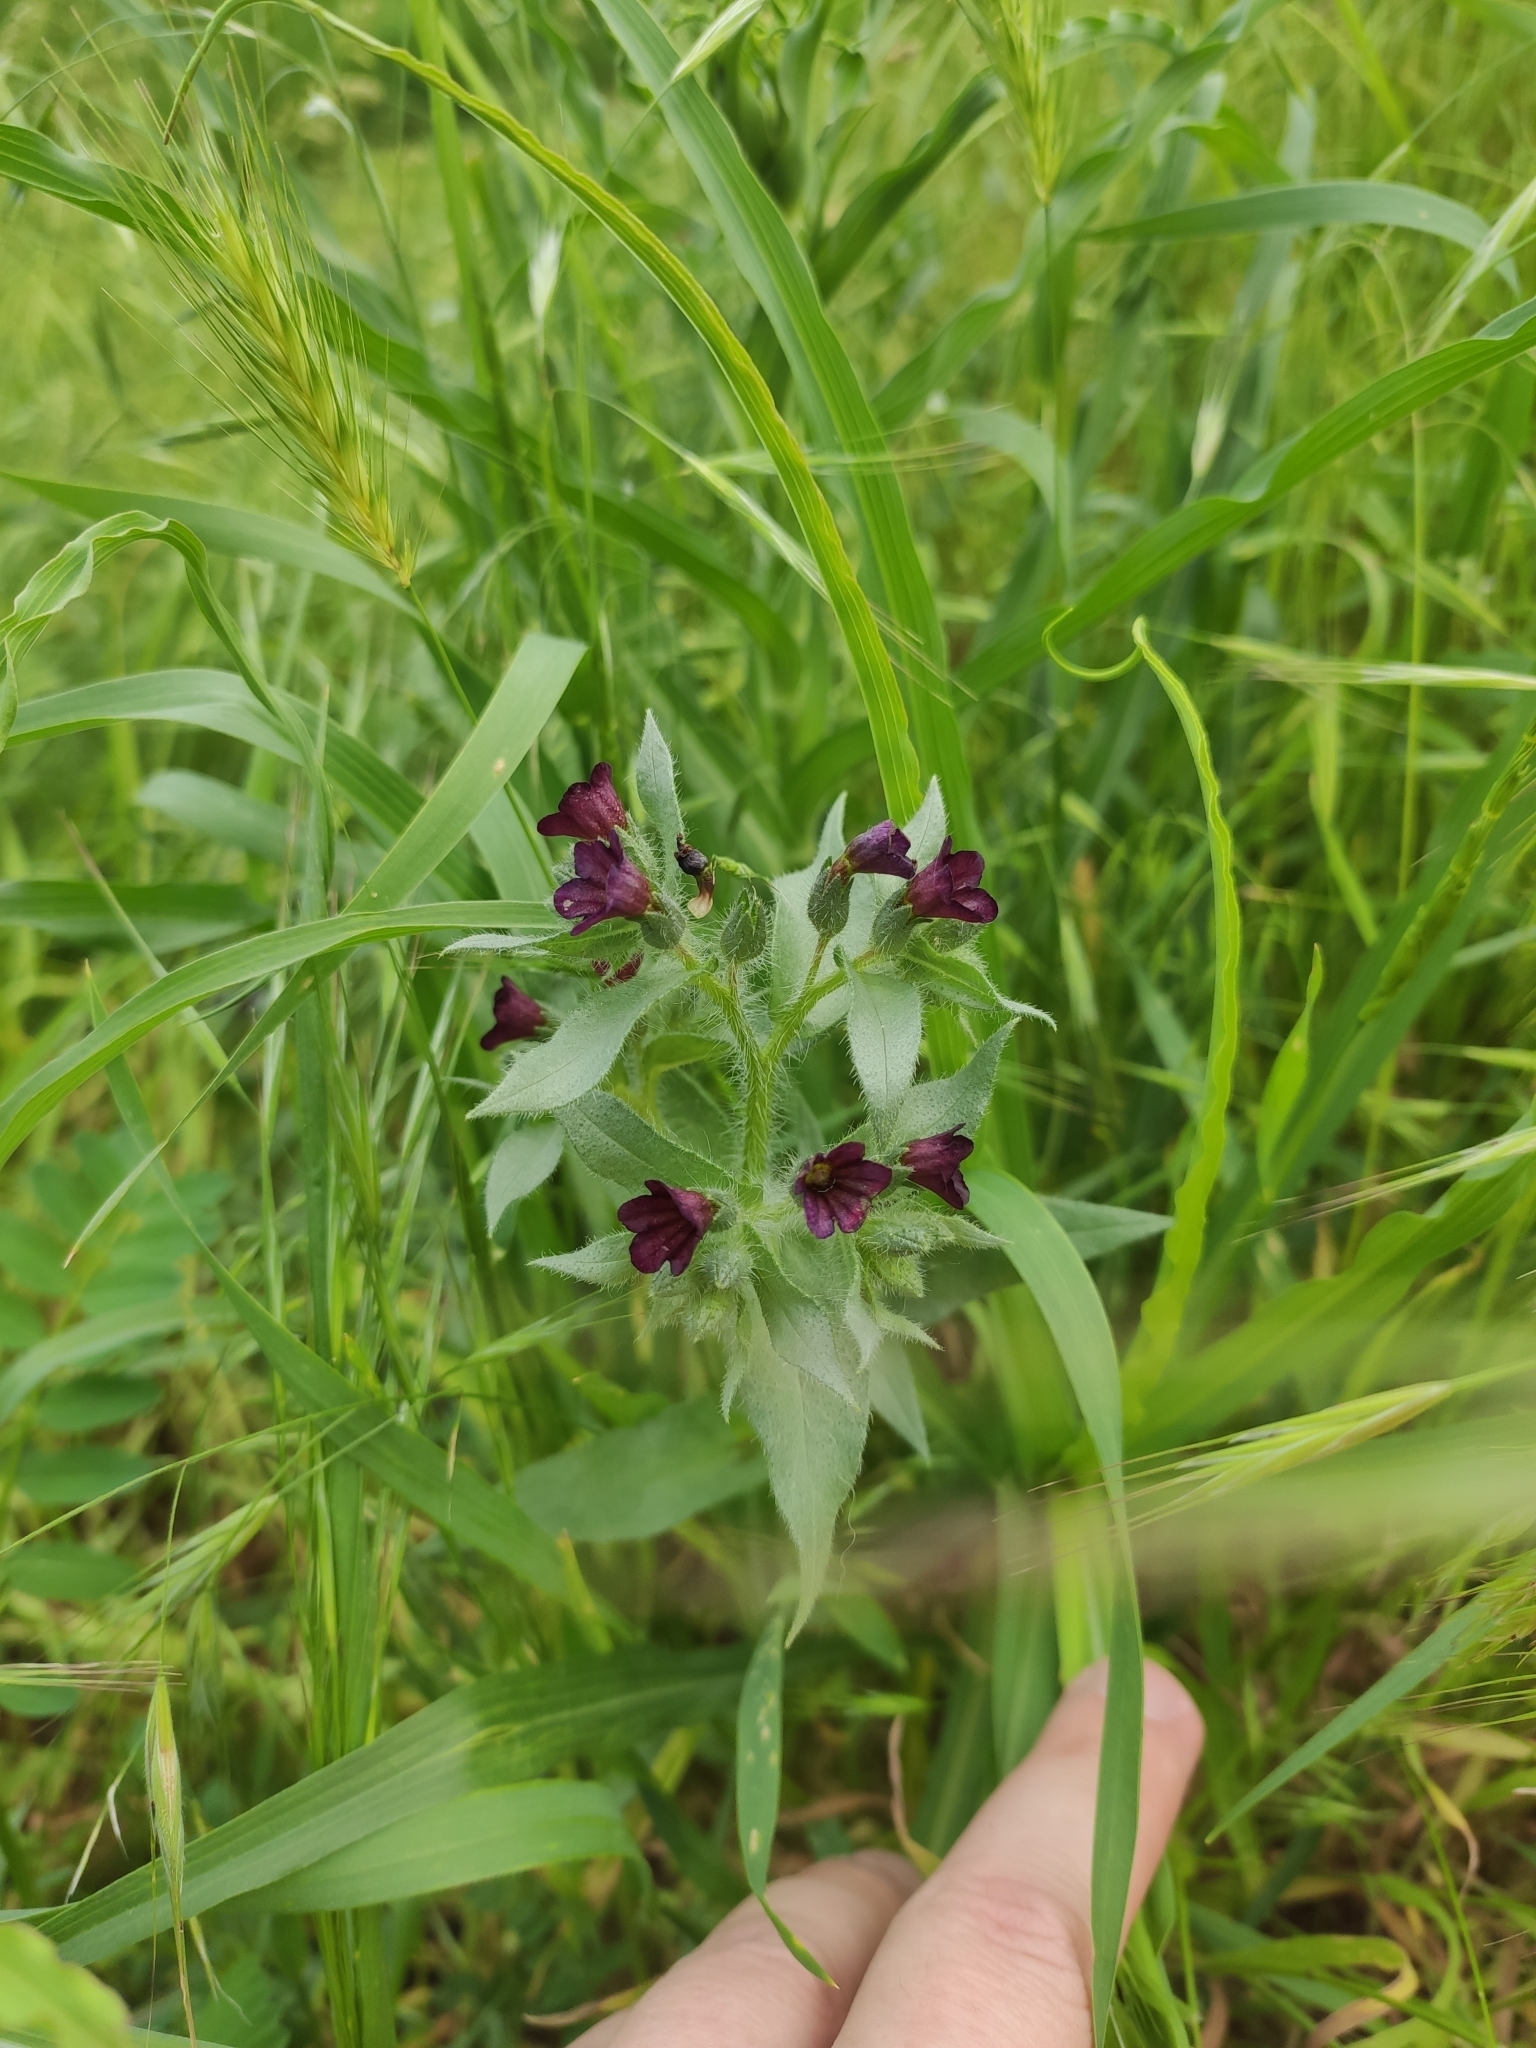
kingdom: Plantae
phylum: Tracheophyta
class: Magnoliopsida
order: Boraginales
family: Boraginaceae
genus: Nonea
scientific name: Nonea pulla
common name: Brown nonea
